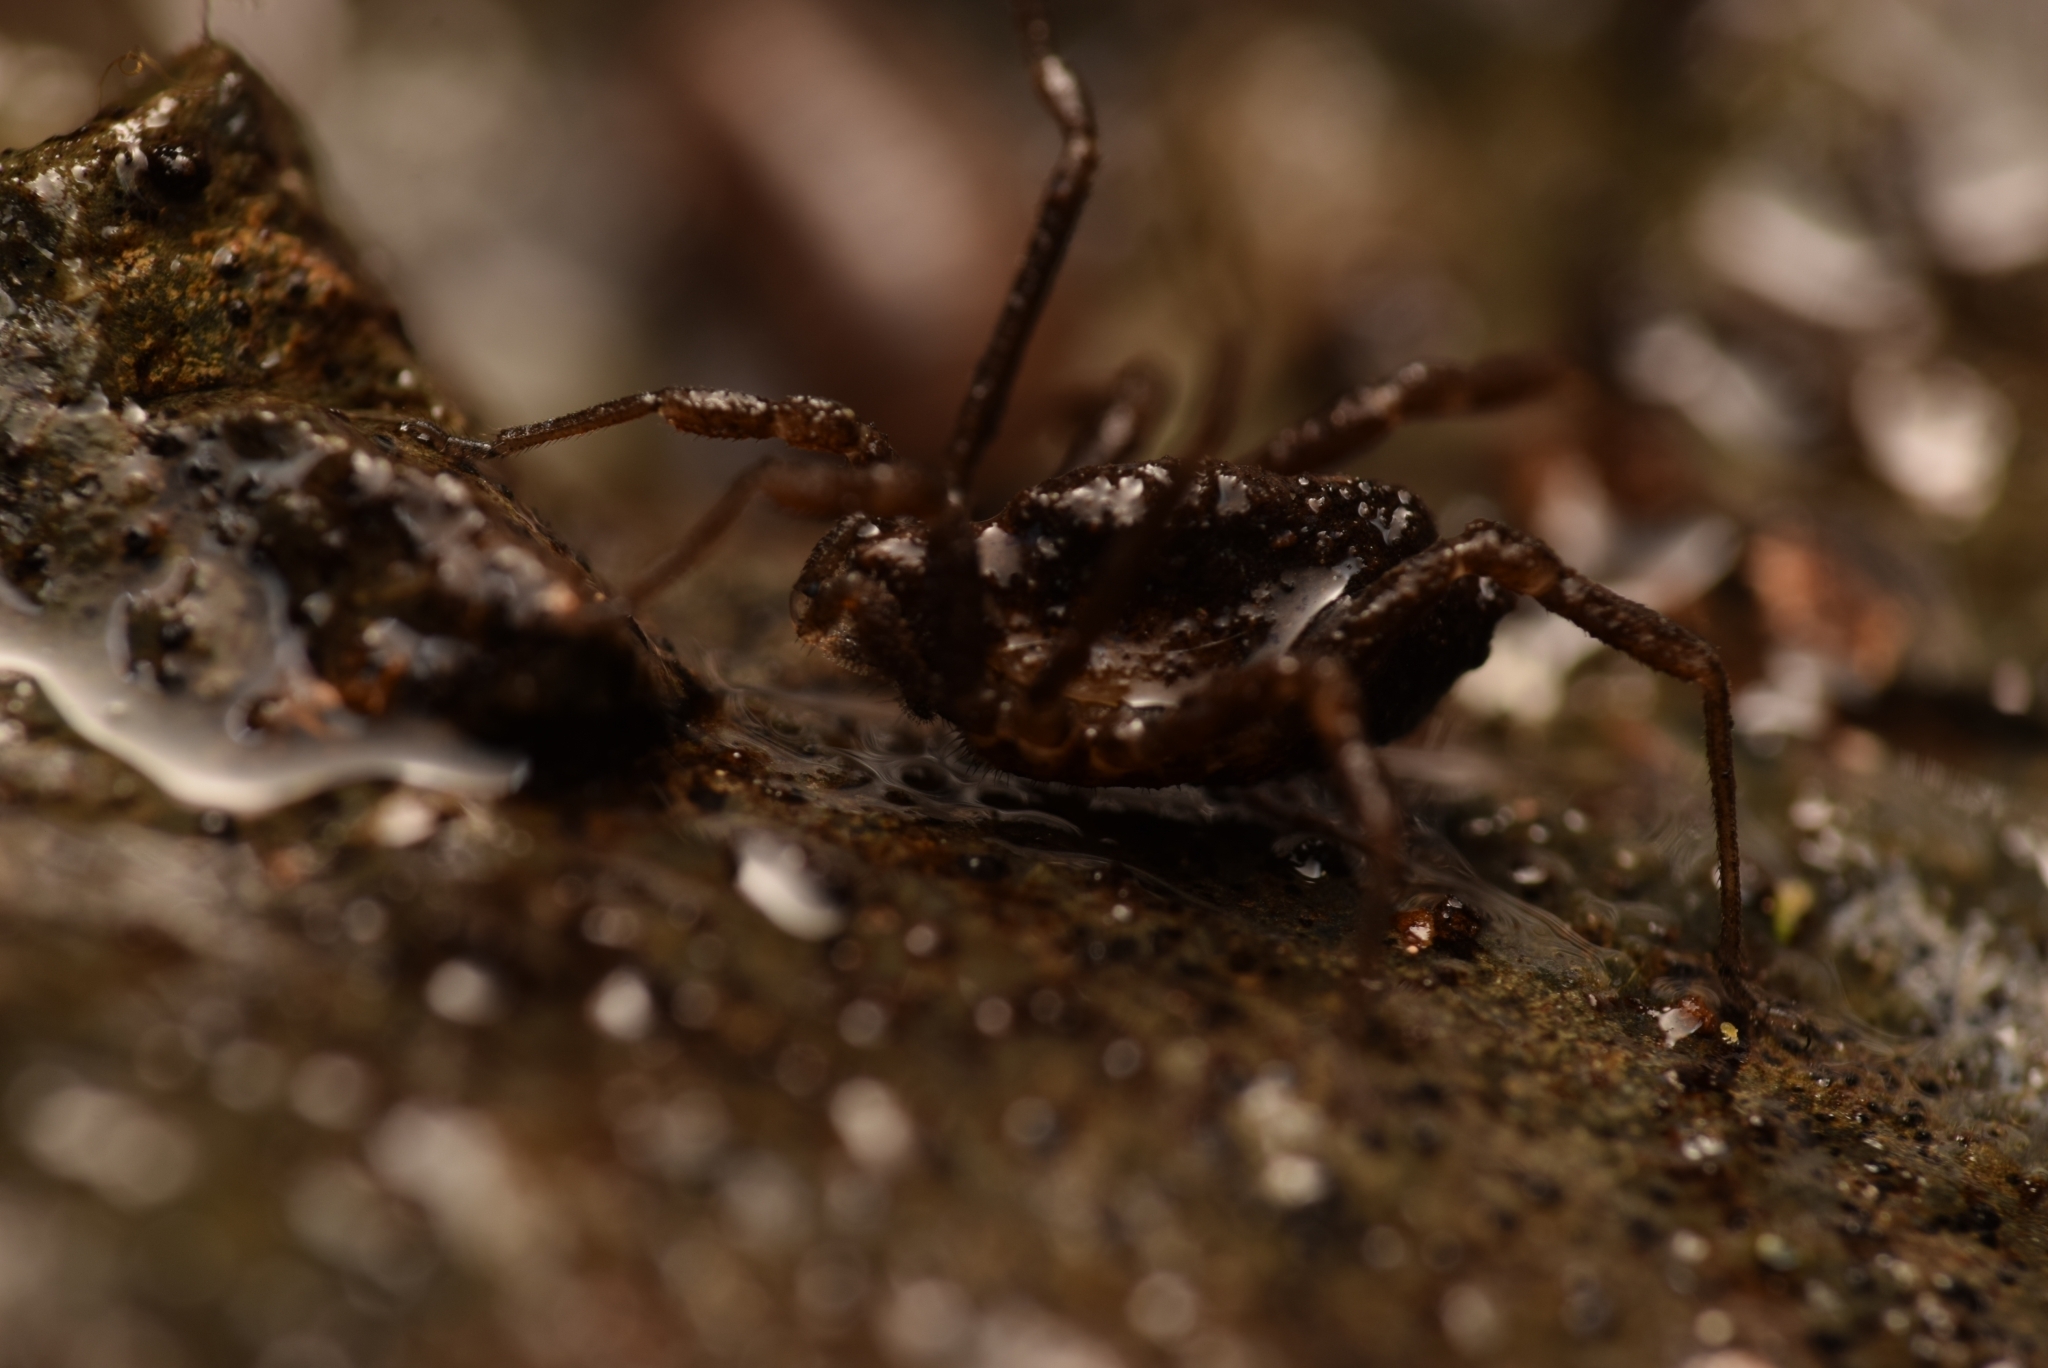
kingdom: Animalia
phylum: Arthropoda
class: Arachnida
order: Opiliones
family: Dicranolasmatidae
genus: Dicranolasma
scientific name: Dicranolasma soerensenii
